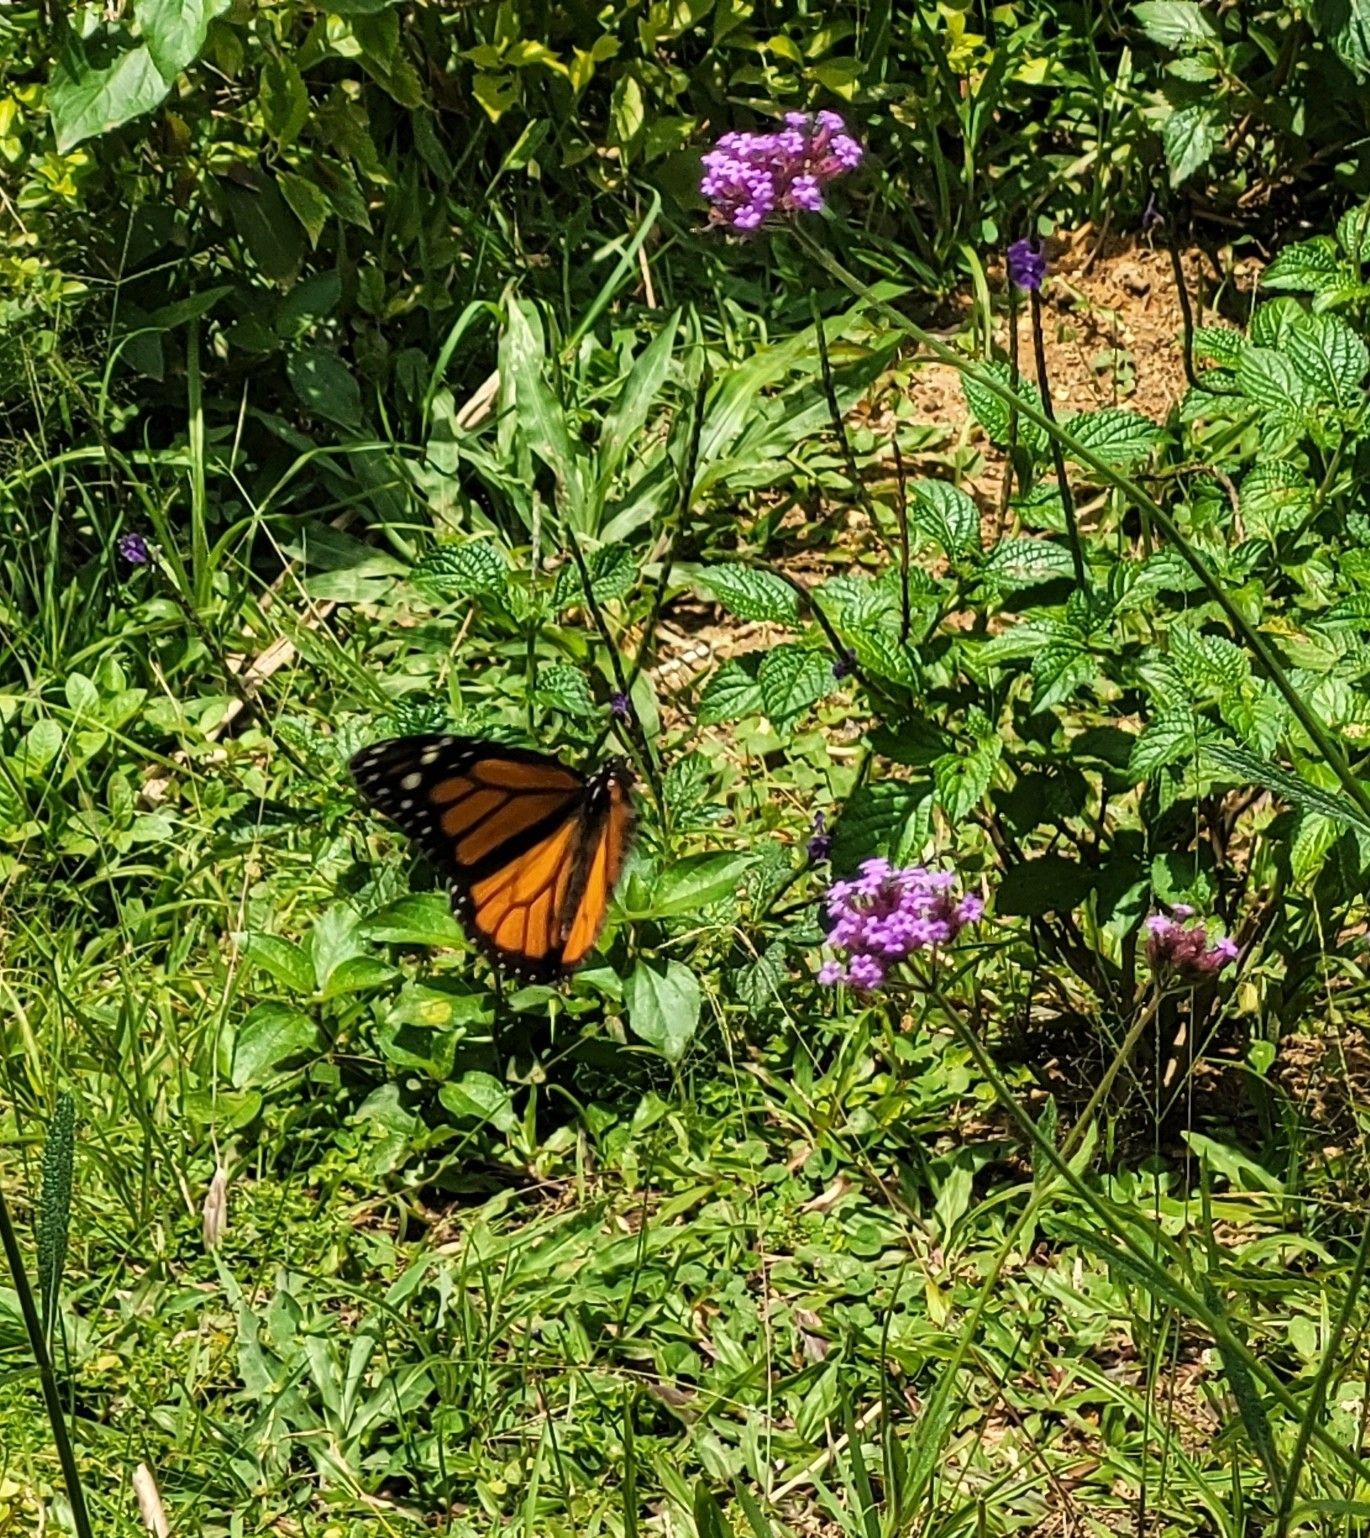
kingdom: Animalia
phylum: Arthropoda
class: Insecta
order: Lepidoptera
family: Nymphalidae
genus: Danaus
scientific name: Danaus plexippus
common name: Monarch
